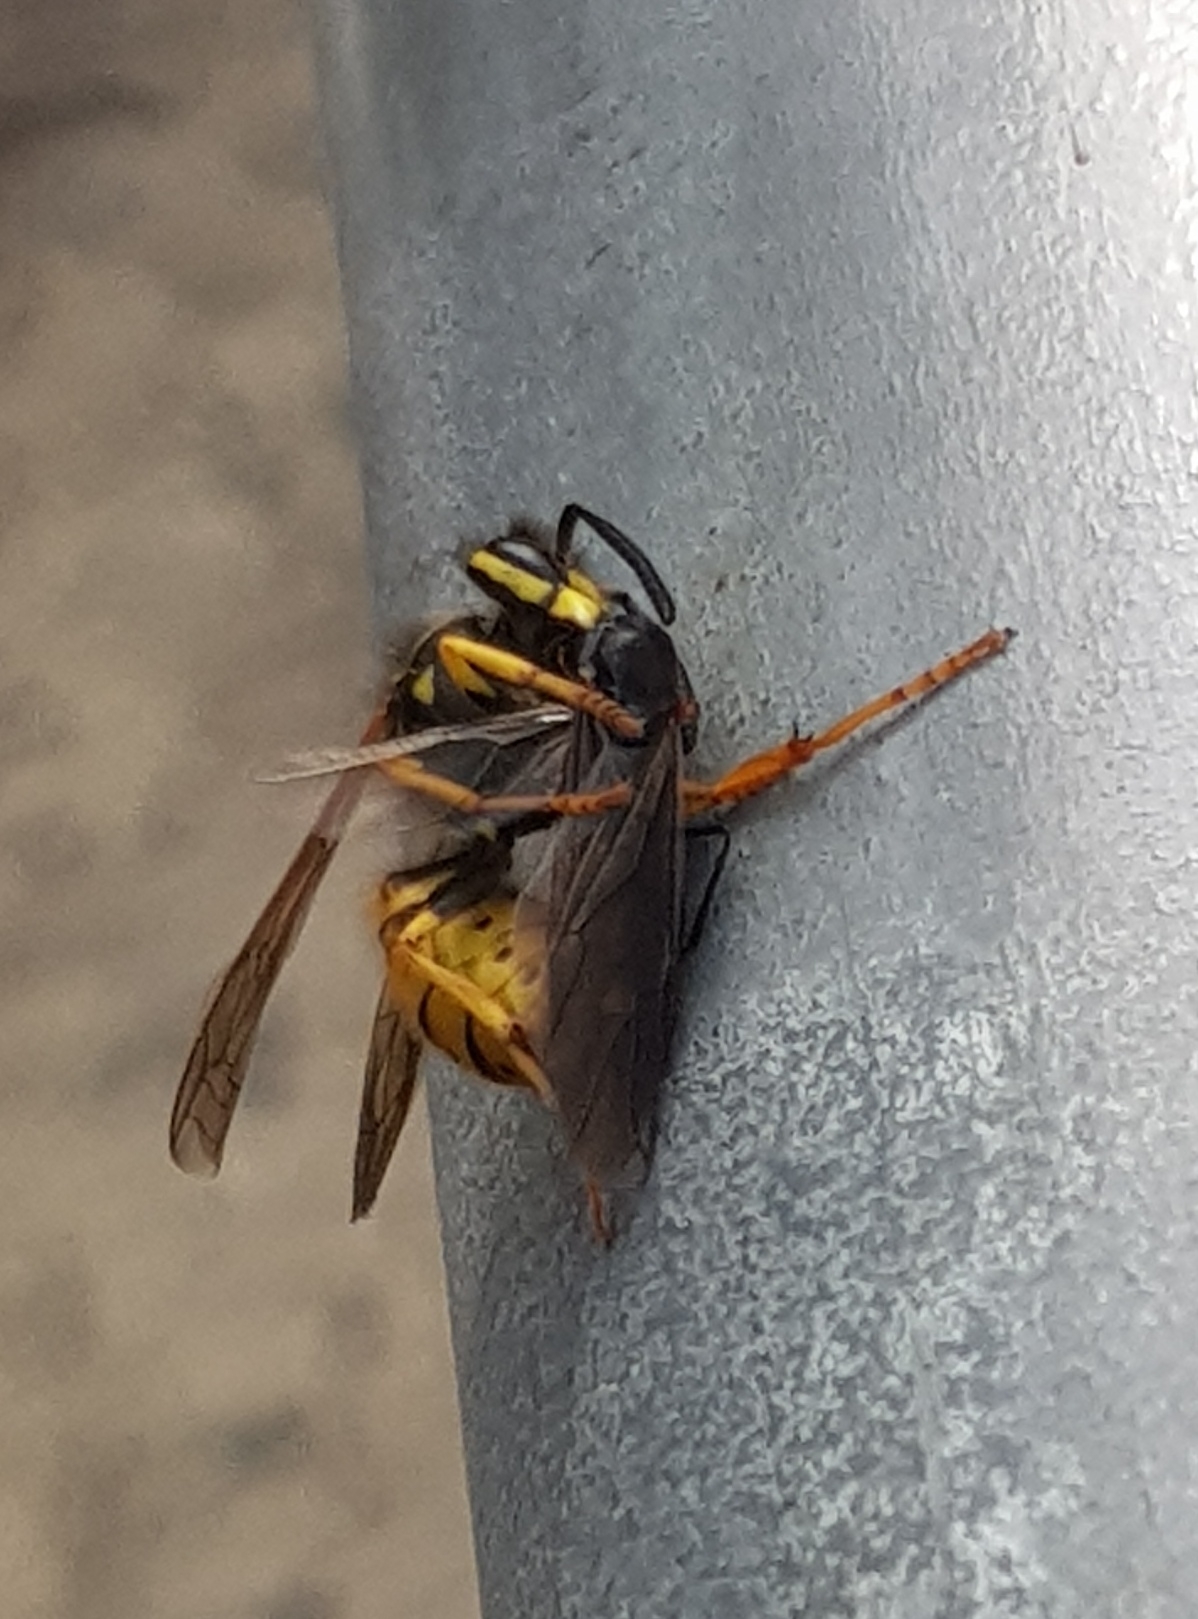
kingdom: Animalia
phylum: Arthropoda
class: Insecta
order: Hymenoptera
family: Vespidae
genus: Vespula
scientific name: Vespula germanica
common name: German wasp
